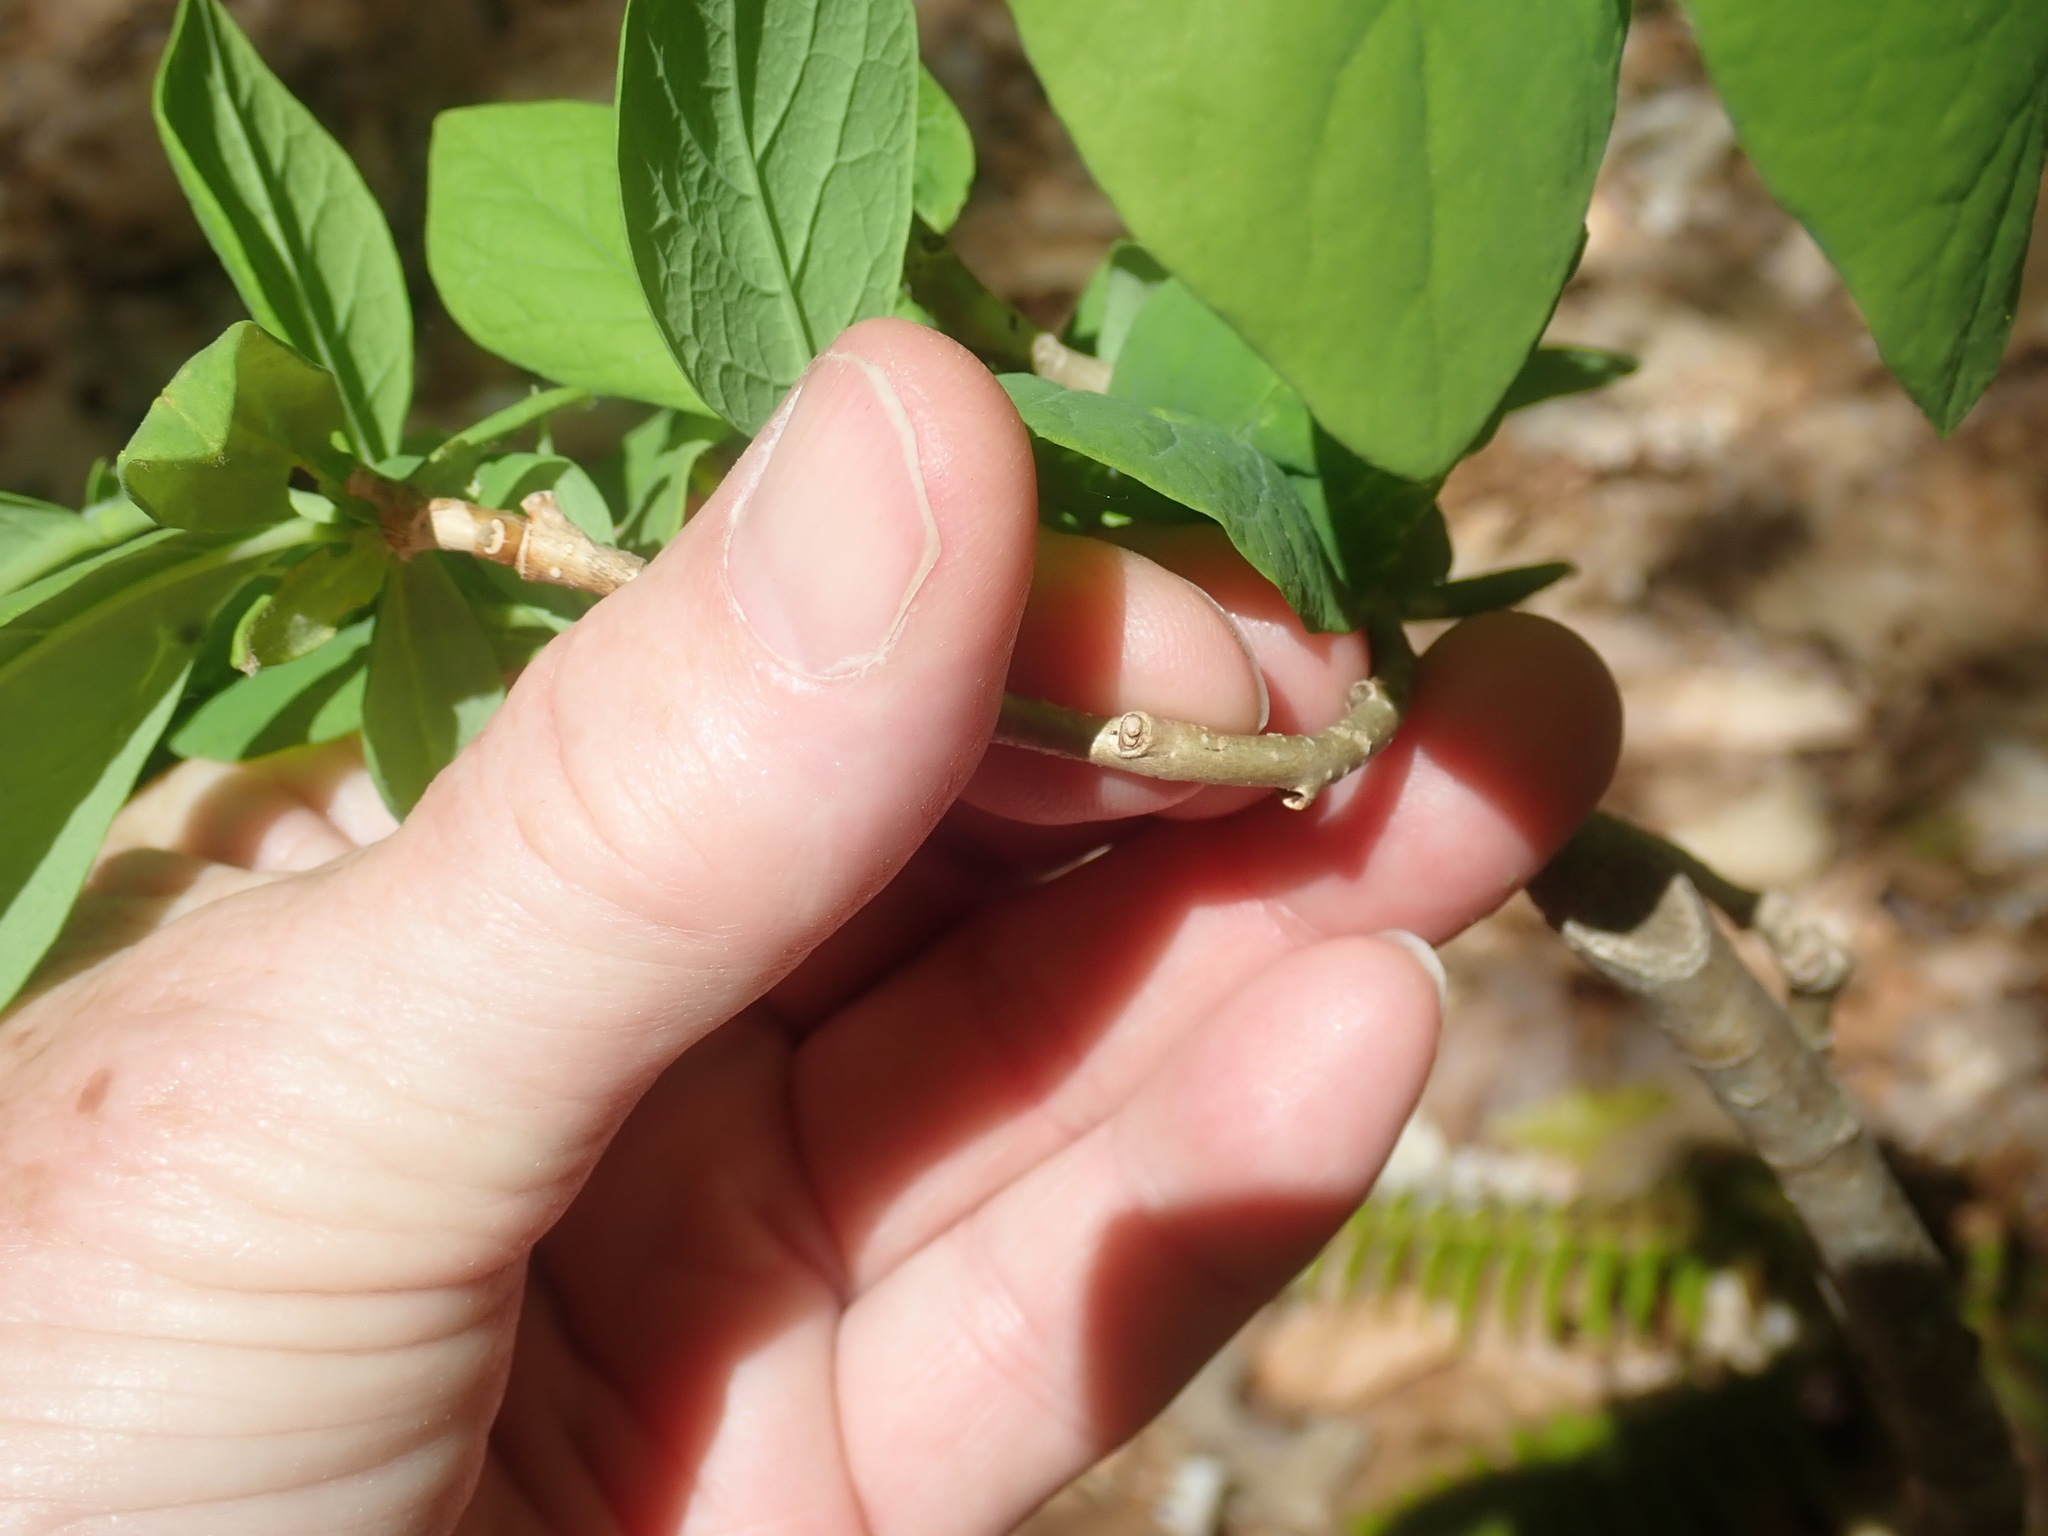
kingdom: Plantae
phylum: Tracheophyta
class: Magnoliopsida
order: Malvales
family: Thymelaeaceae
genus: Dirca
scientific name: Dirca palustris
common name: Leatherwood
